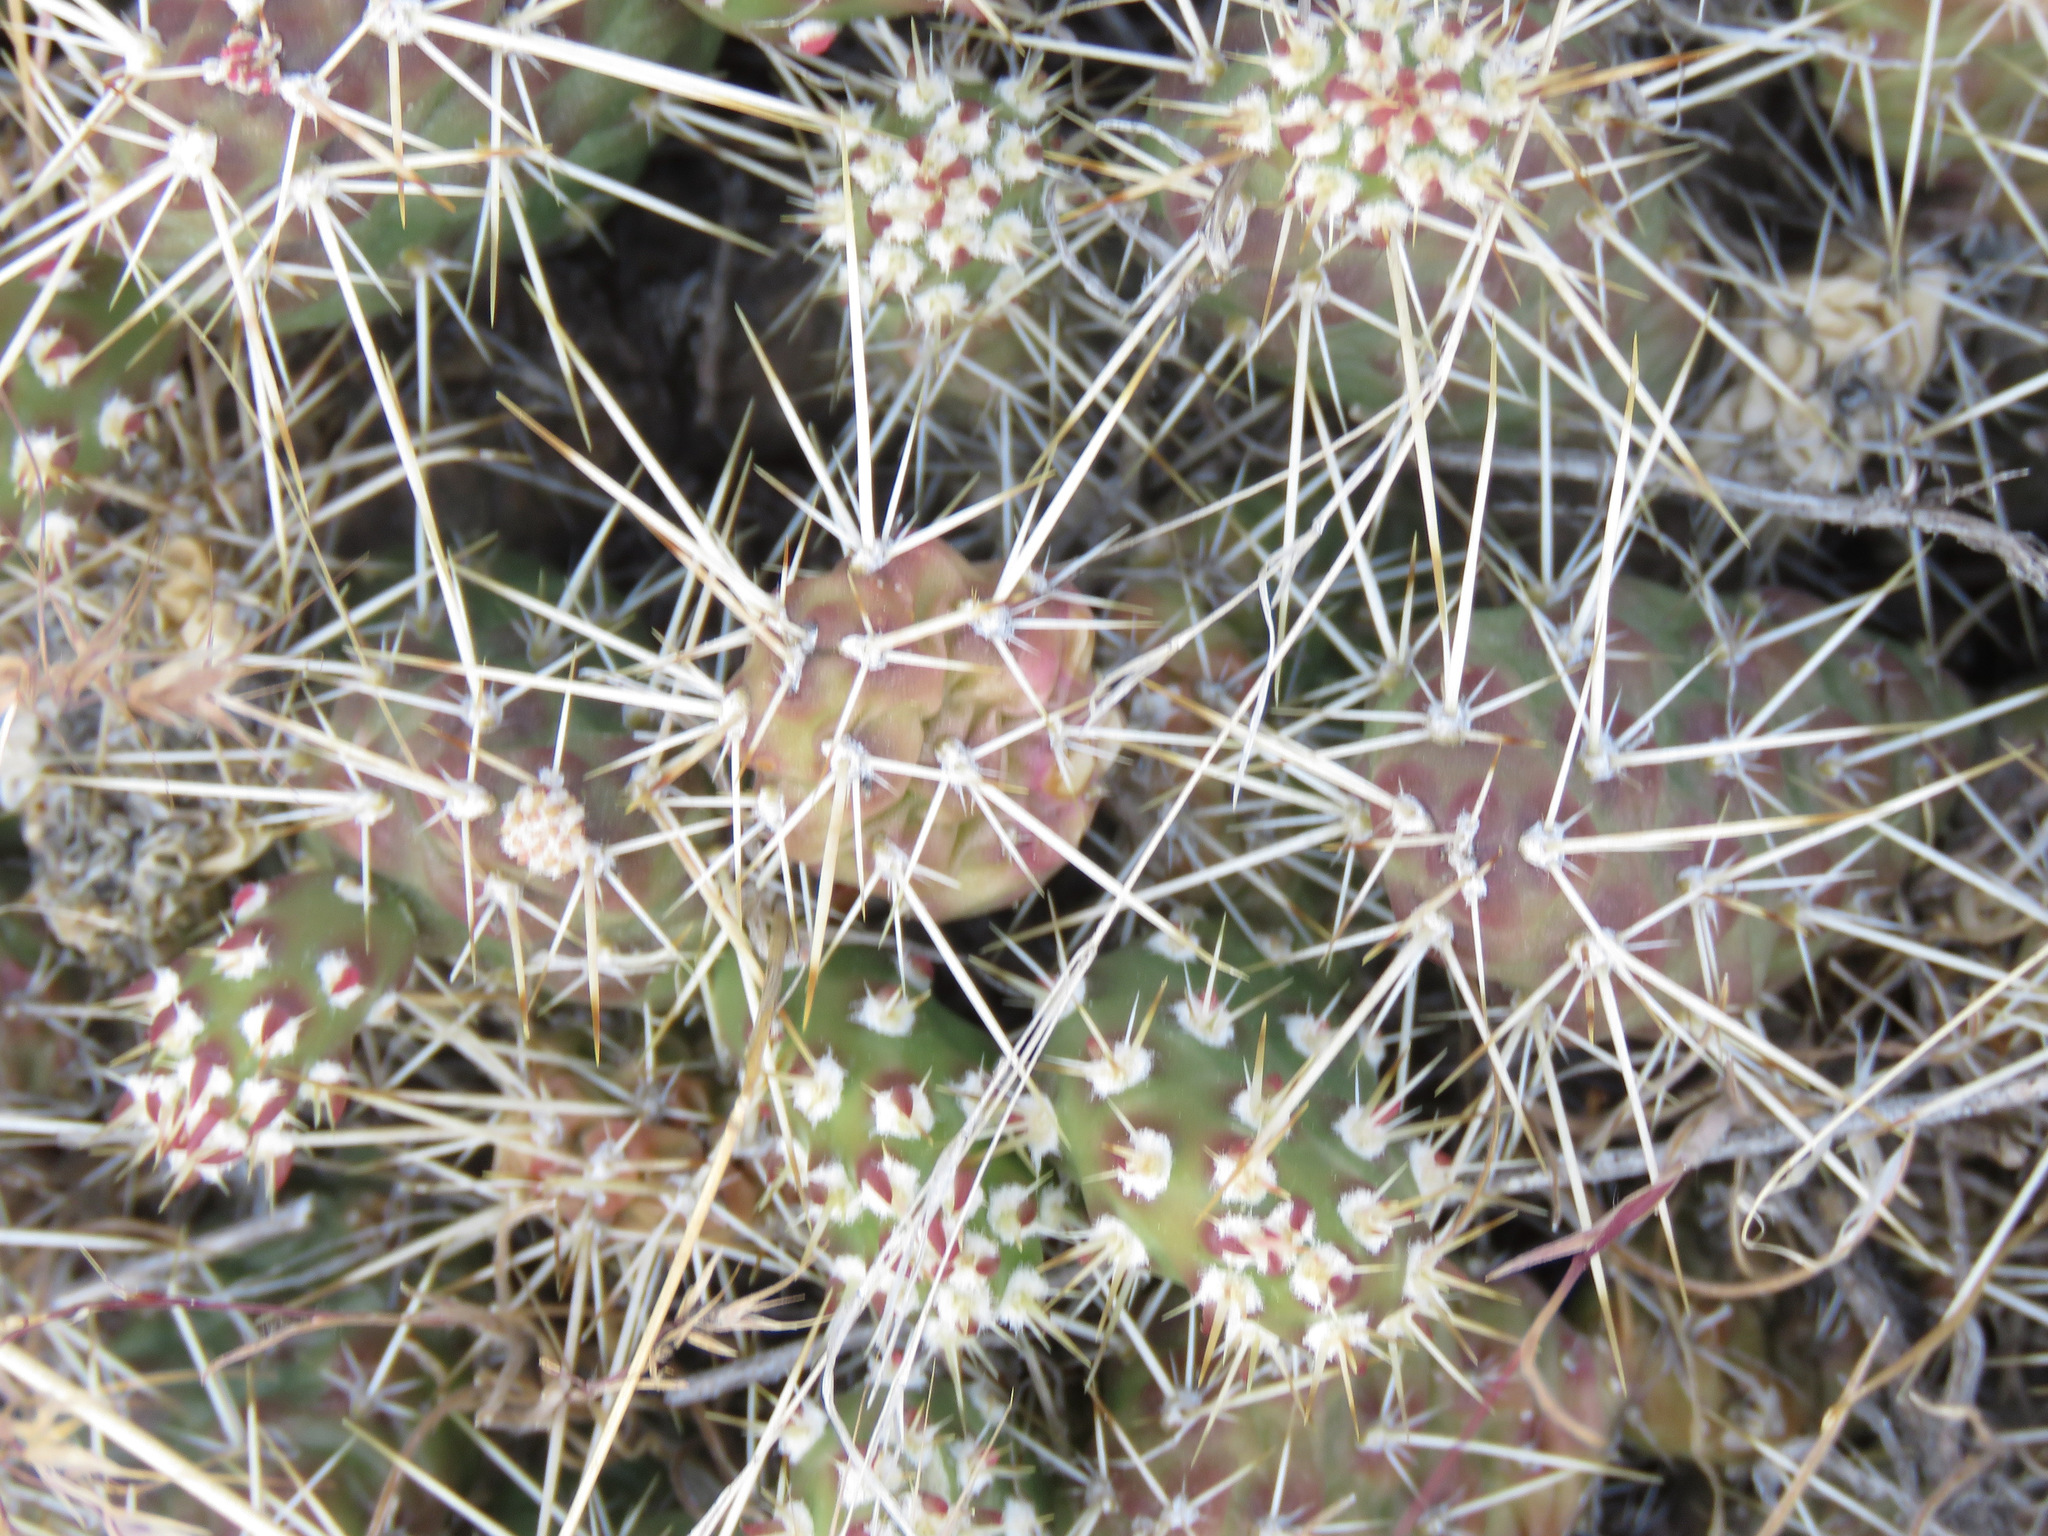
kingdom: Plantae
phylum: Tracheophyta
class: Magnoliopsida
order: Caryophyllales
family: Cactaceae
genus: Opuntia
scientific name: Opuntia fragilis
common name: Brittle cactus
